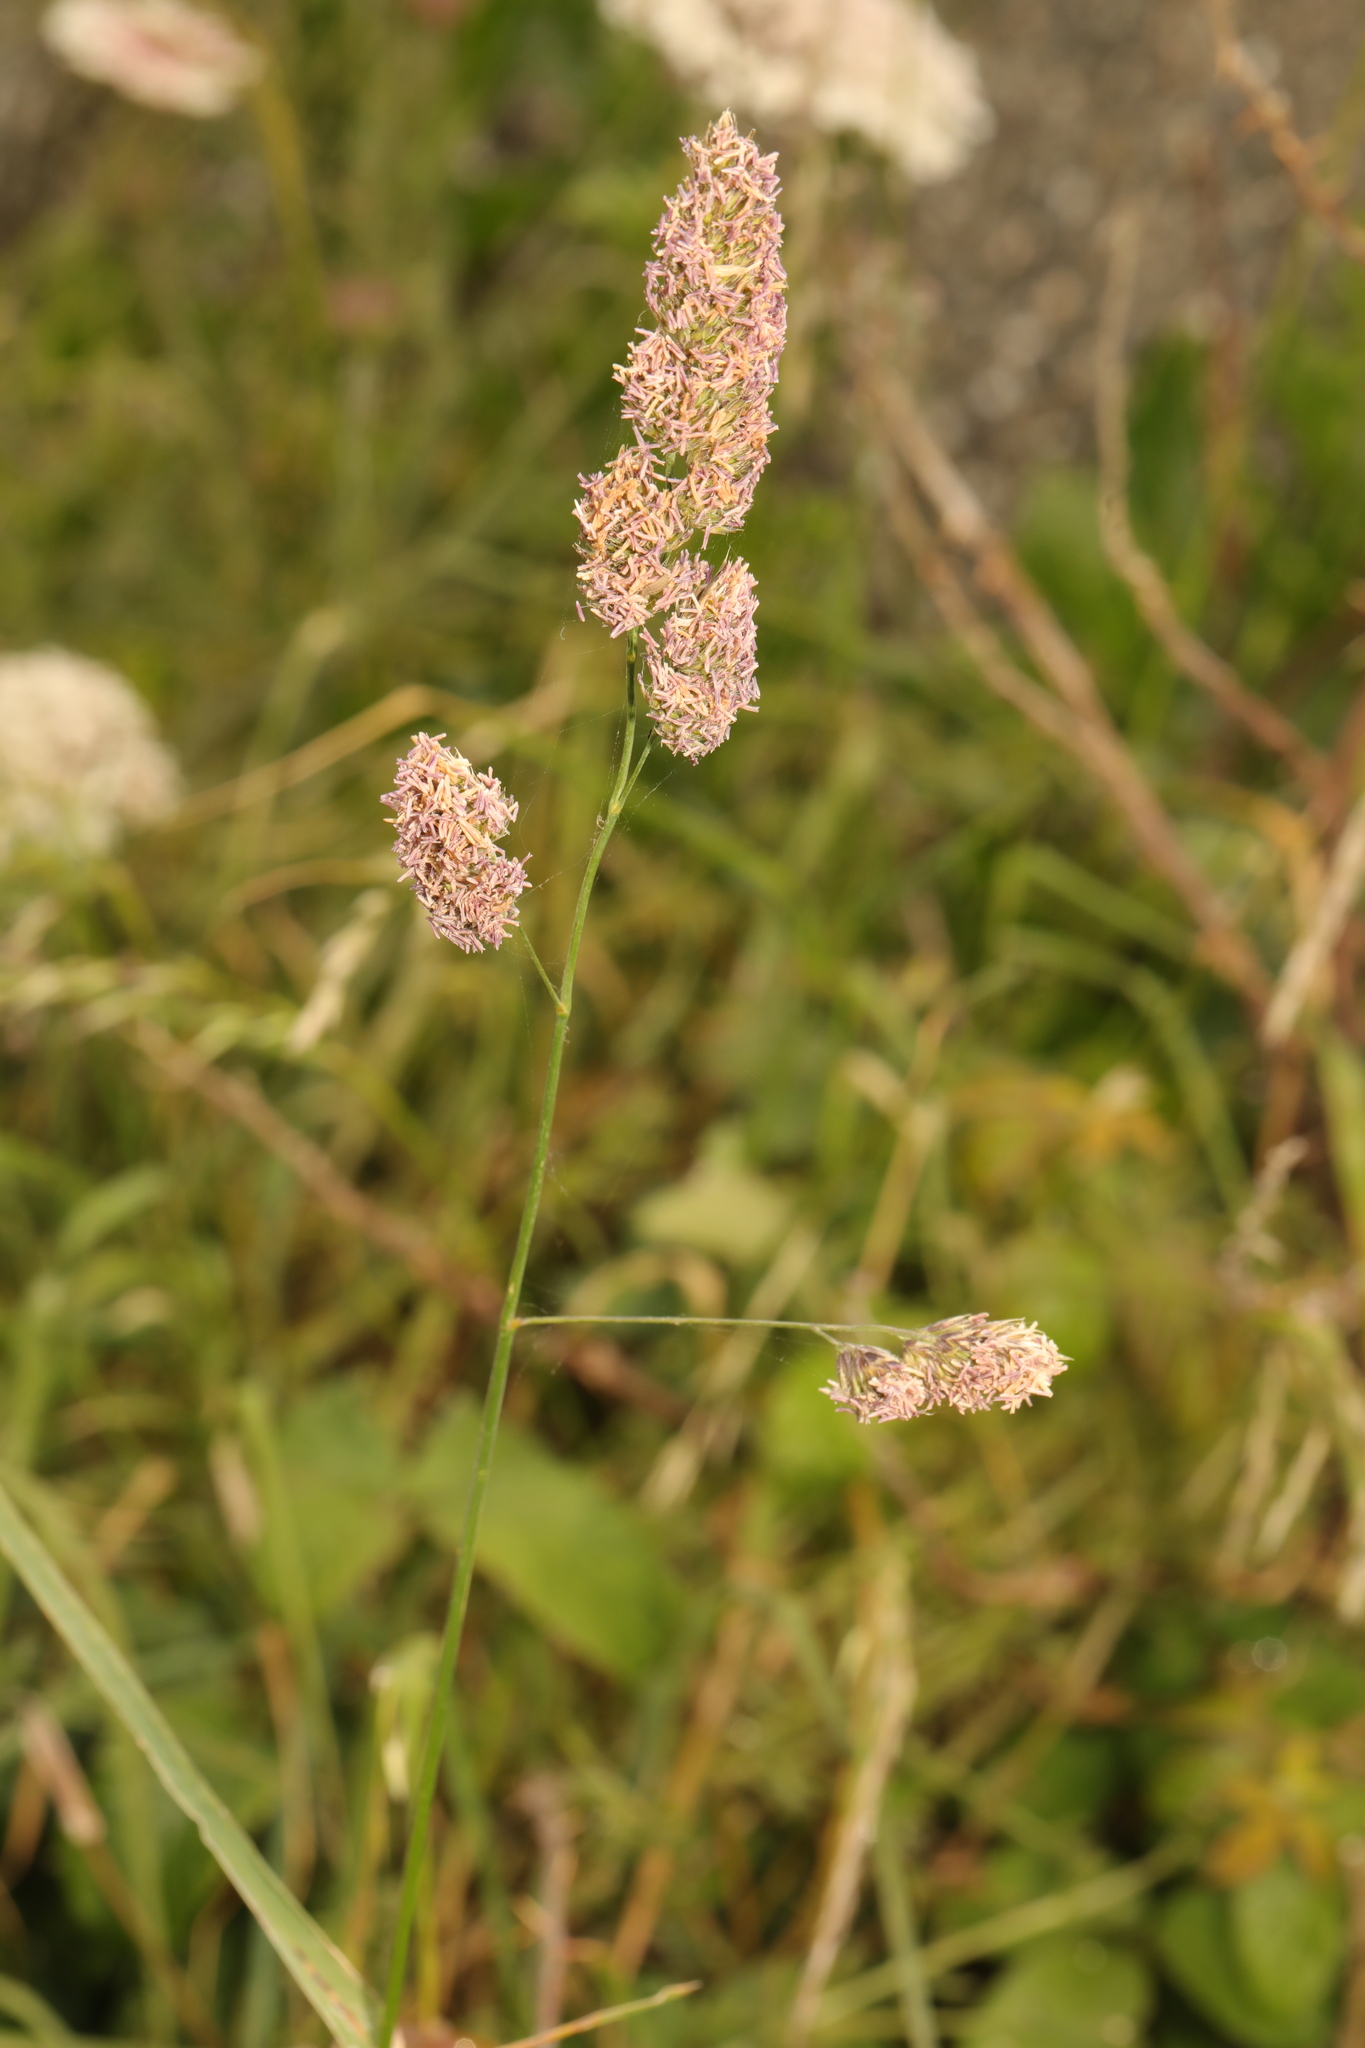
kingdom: Plantae
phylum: Tracheophyta
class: Liliopsida
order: Poales
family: Poaceae
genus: Dactylis
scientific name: Dactylis glomerata
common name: Orchardgrass
